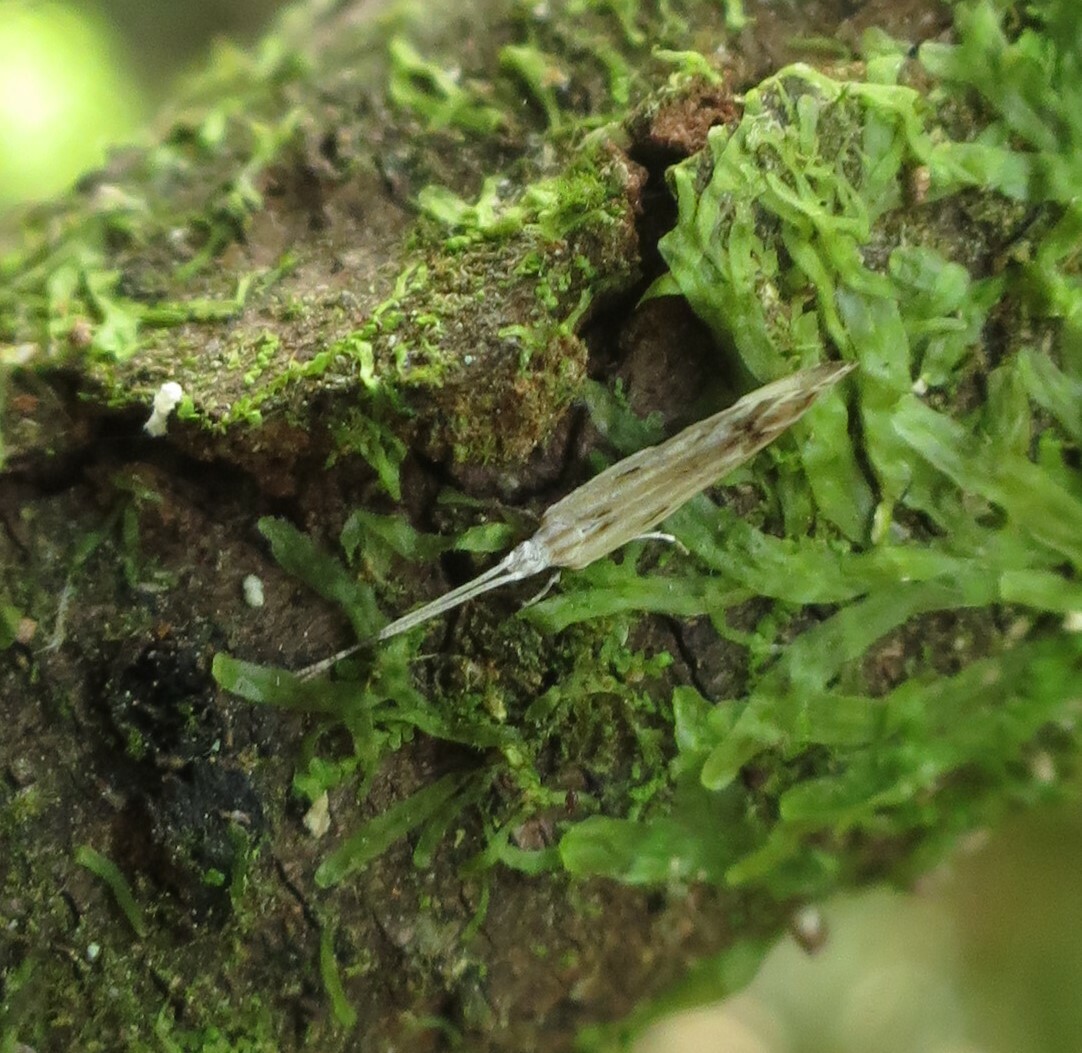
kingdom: Animalia
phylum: Arthropoda
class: Insecta
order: Lepidoptera
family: Tineidae
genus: Sagephora
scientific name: Sagephora phortegella
